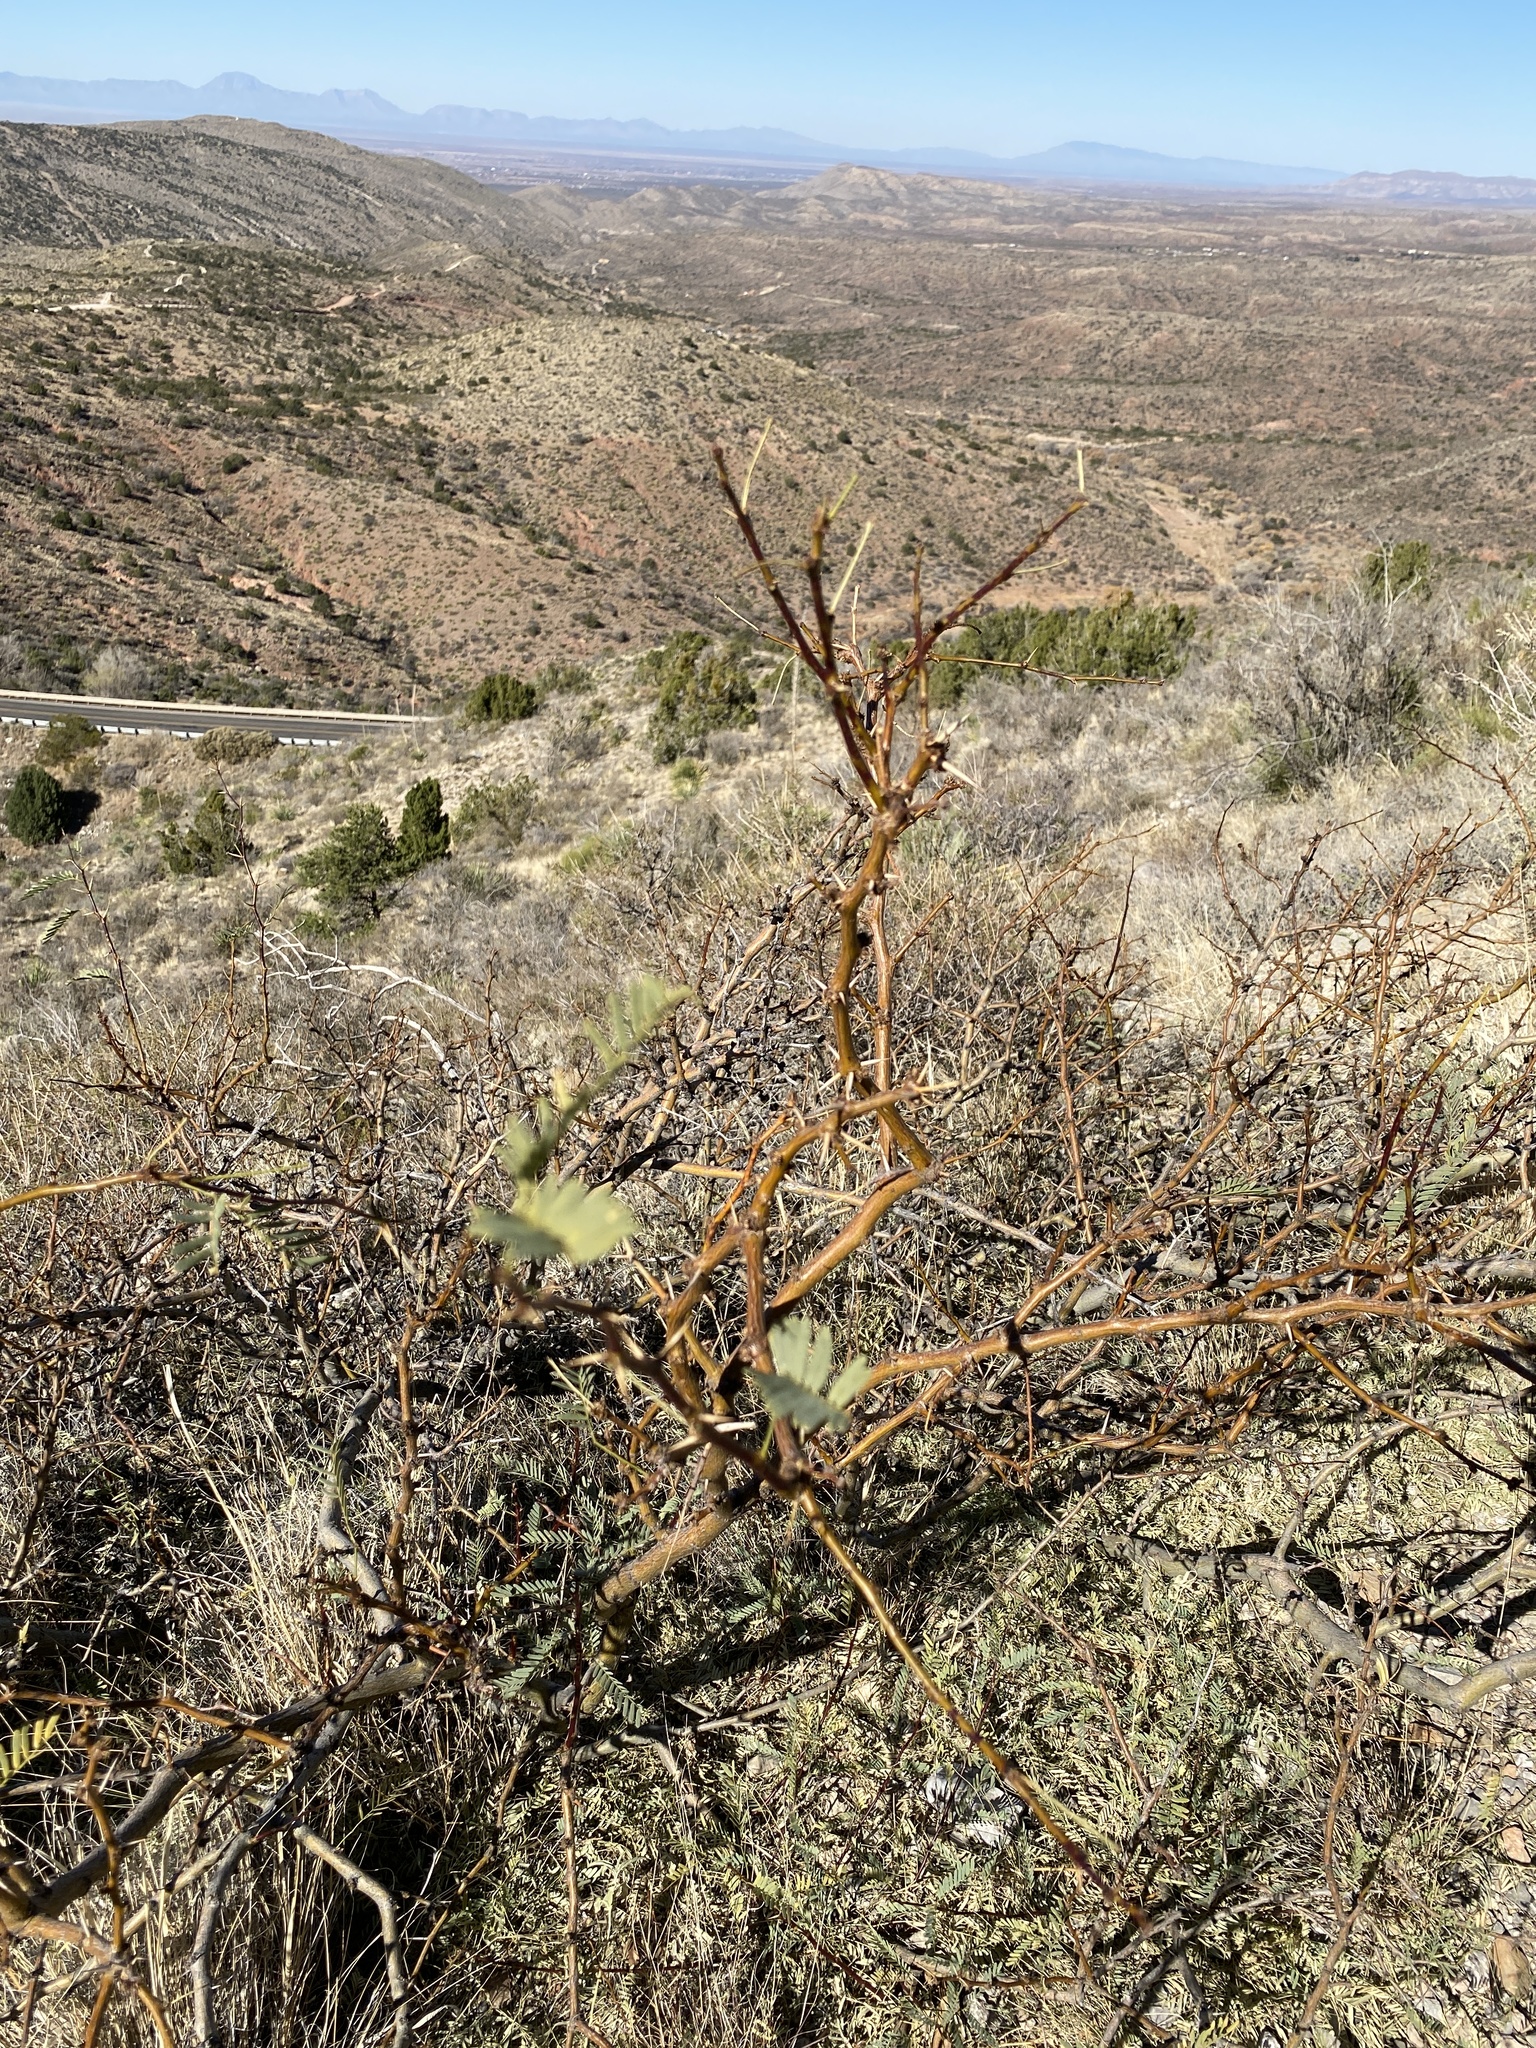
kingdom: Plantae
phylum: Tracheophyta
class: Magnoliopsida
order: Fabales
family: Fabaceae
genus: Prosopis
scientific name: Prosopis glandulosa
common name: Honey mesquite
